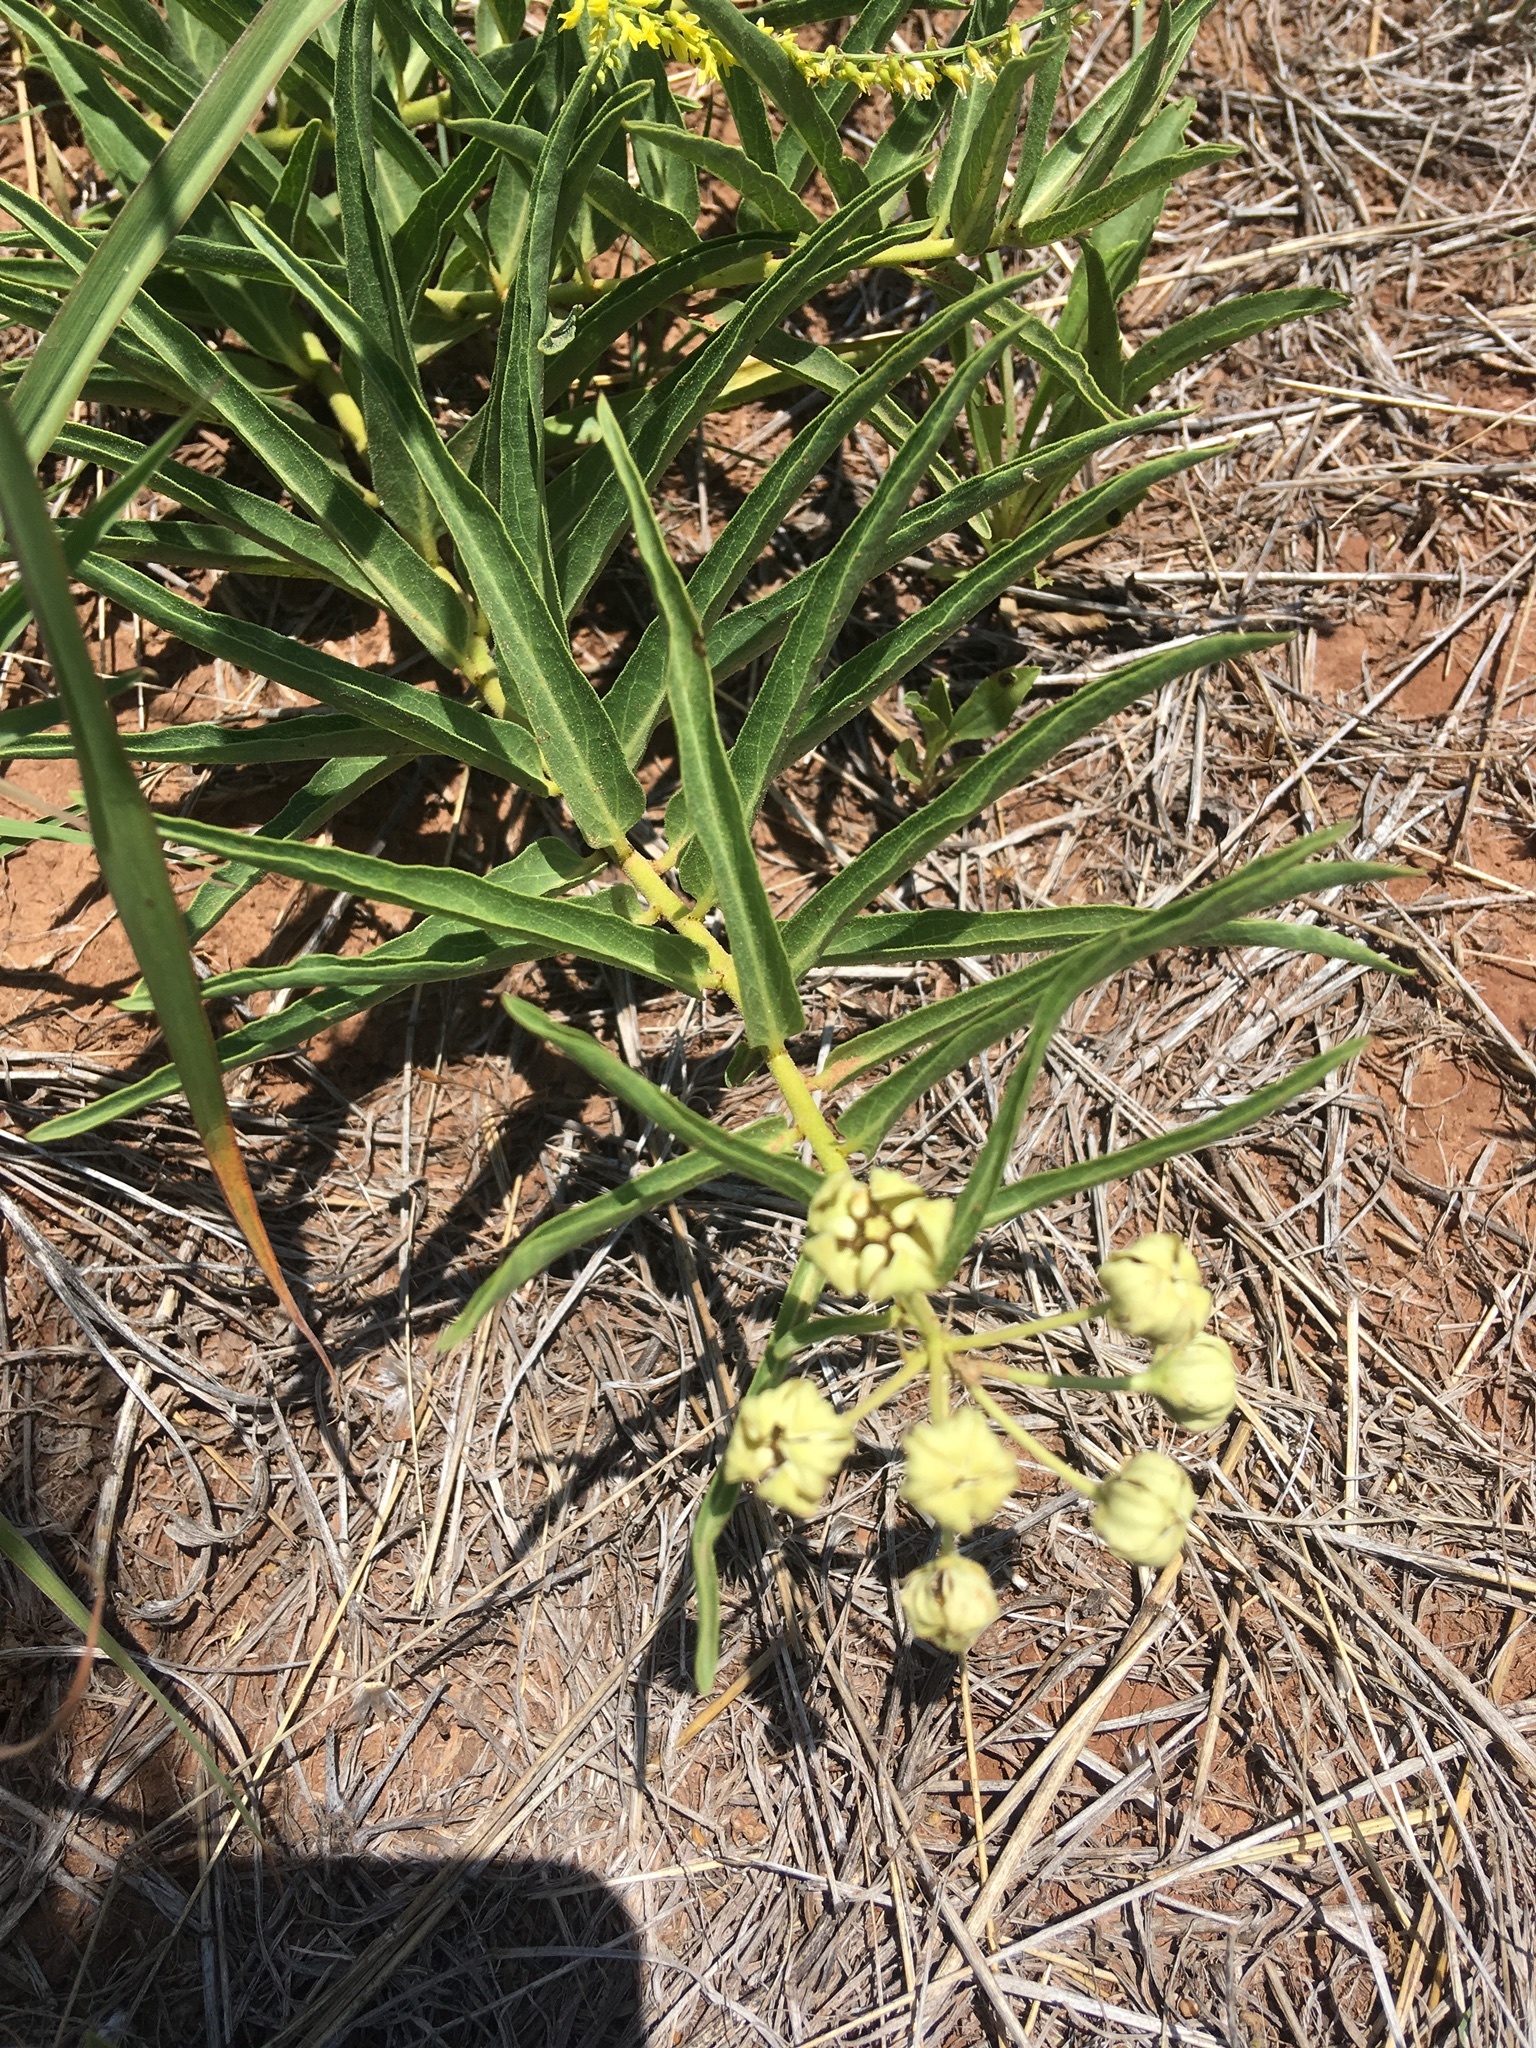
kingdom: Plantae
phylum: Tracheophyta
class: Magnoliopsida
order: Gentianales
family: Apocynaceae
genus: Asclepias
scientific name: Asclepias asperula
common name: Antelope horns
